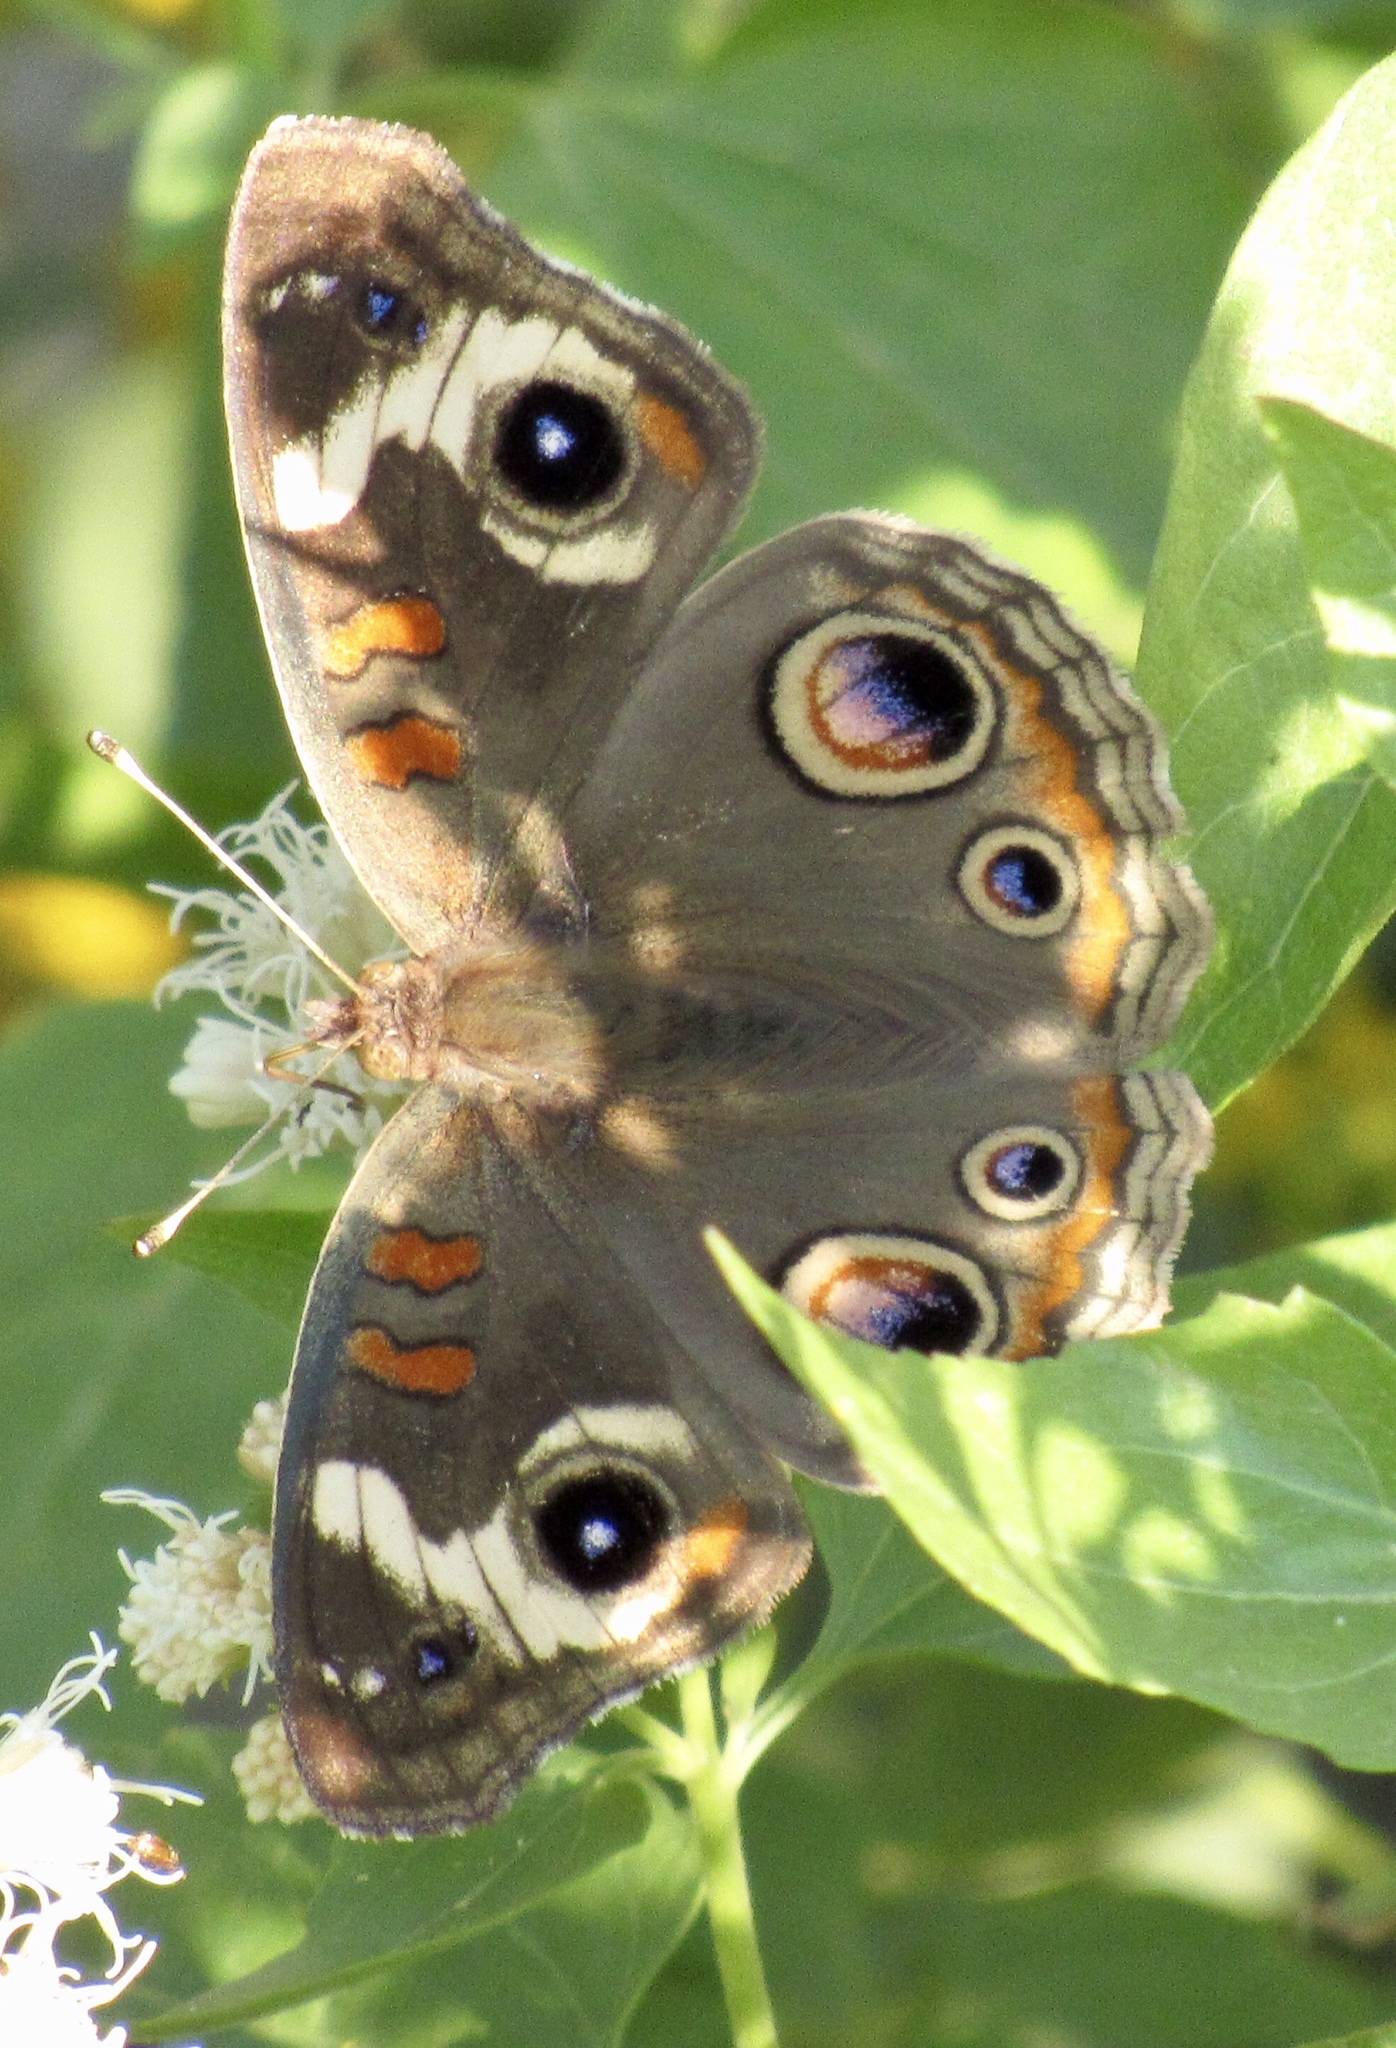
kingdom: Animalia
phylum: Arthropoda
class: Insecta
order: Lepidoptera
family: Nymphalidae
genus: Junonia
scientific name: Junonia grisea
